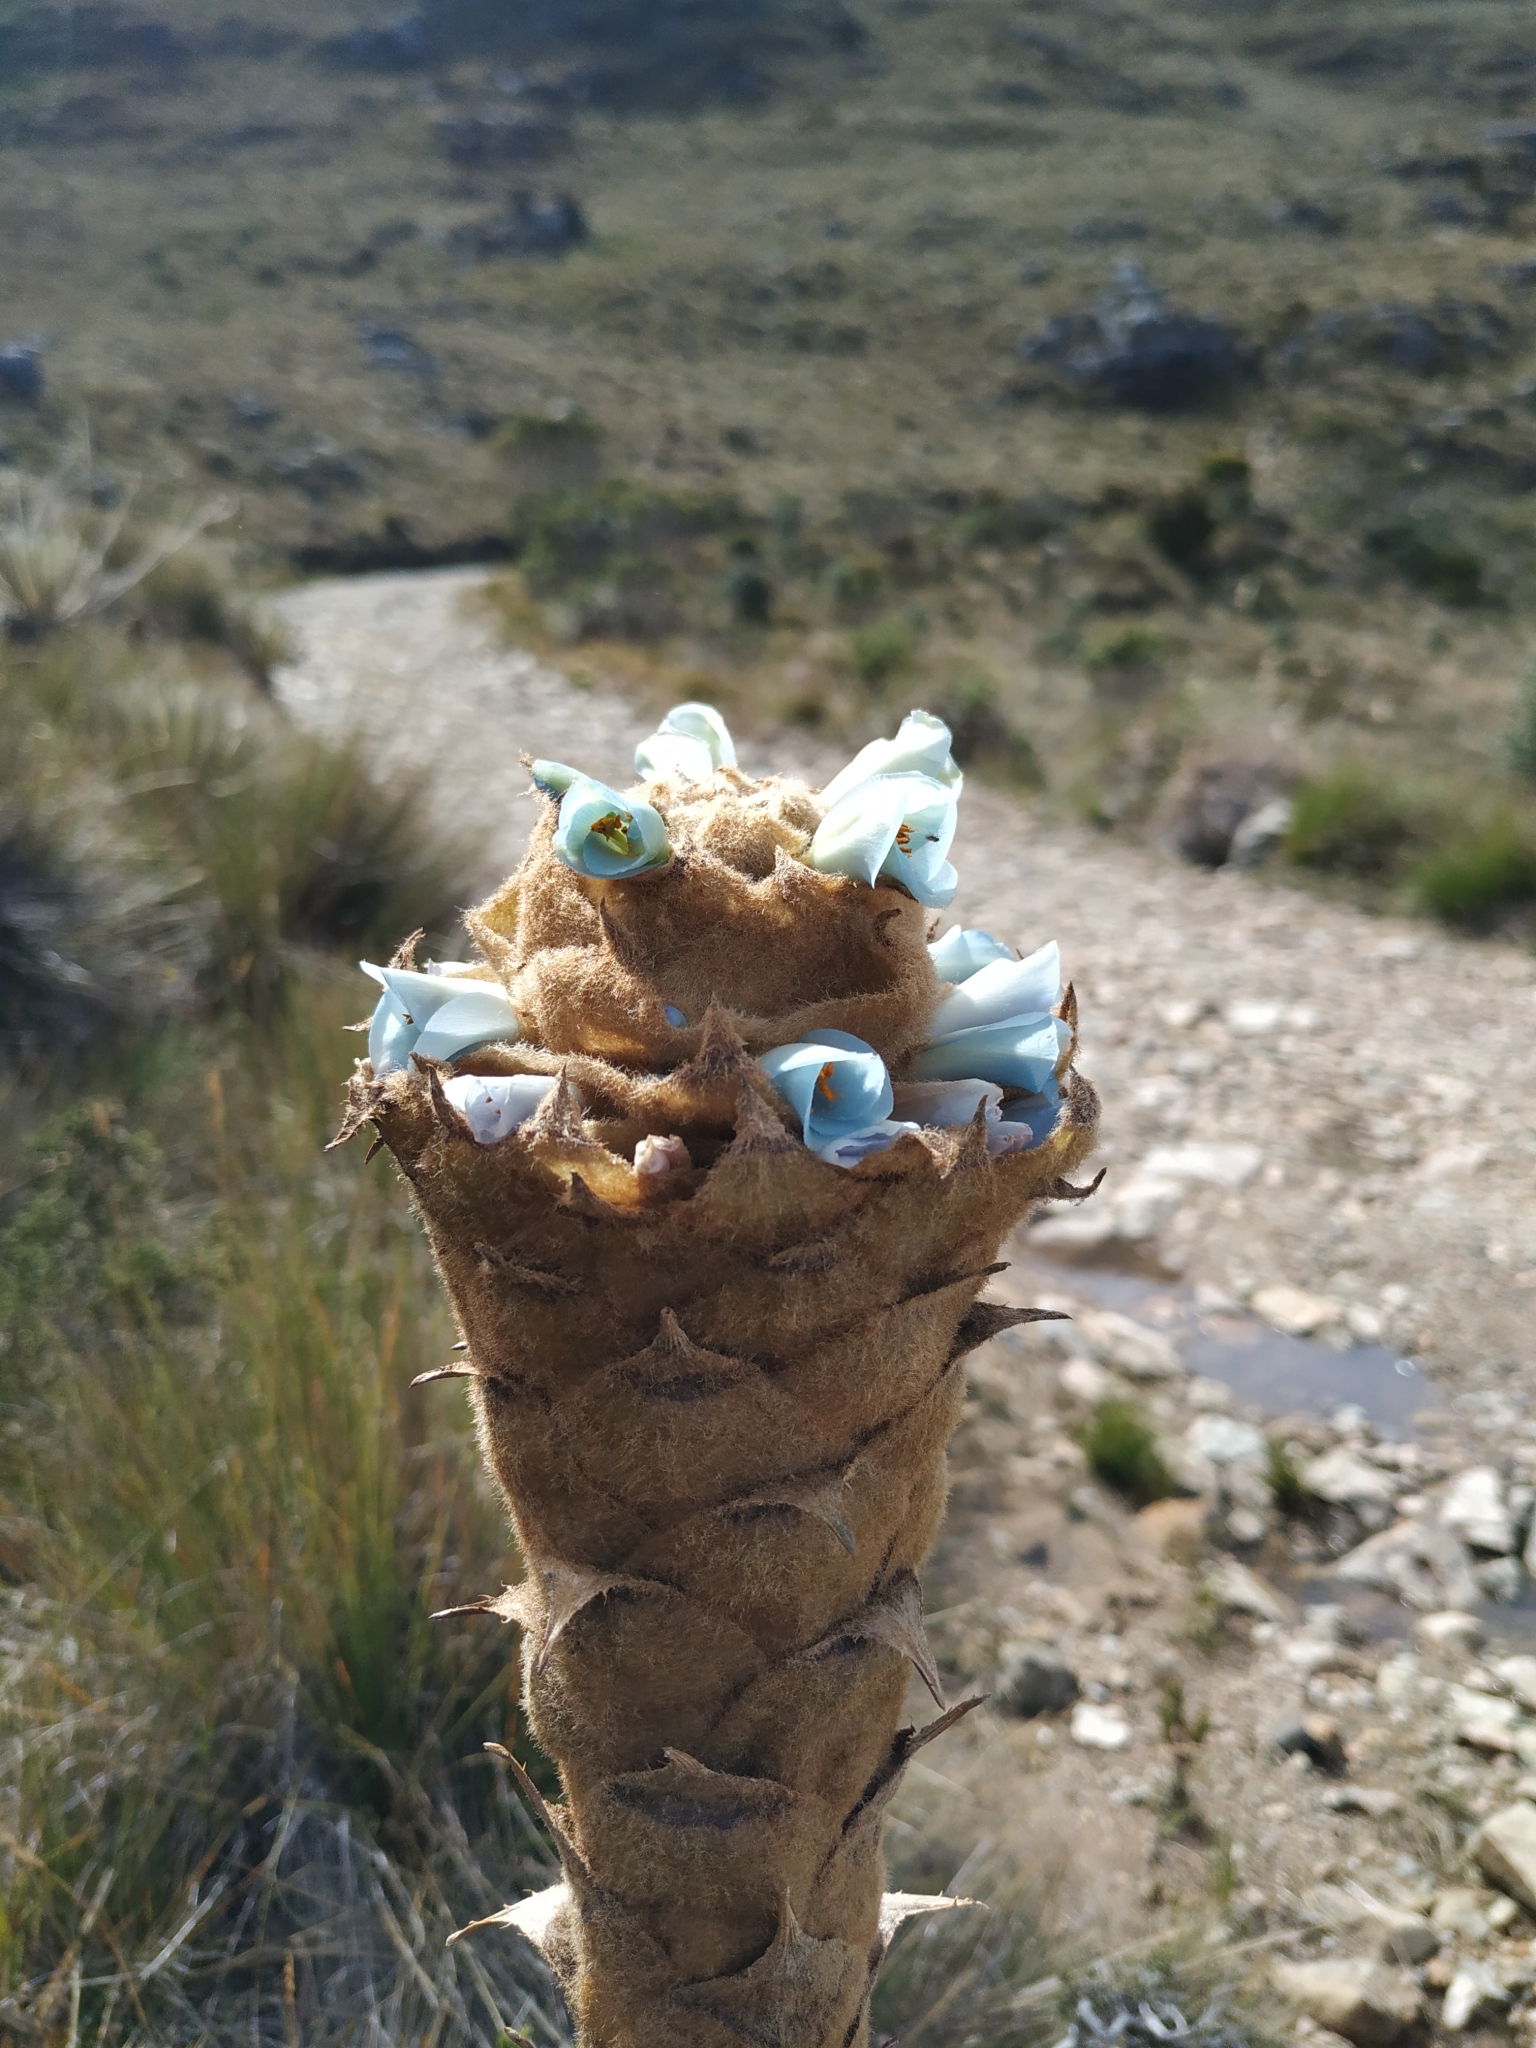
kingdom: Plantae
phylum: Tracheophyta
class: Liliopsida
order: Poales
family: Bromeliaceae
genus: Puya
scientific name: Puya boyacana
